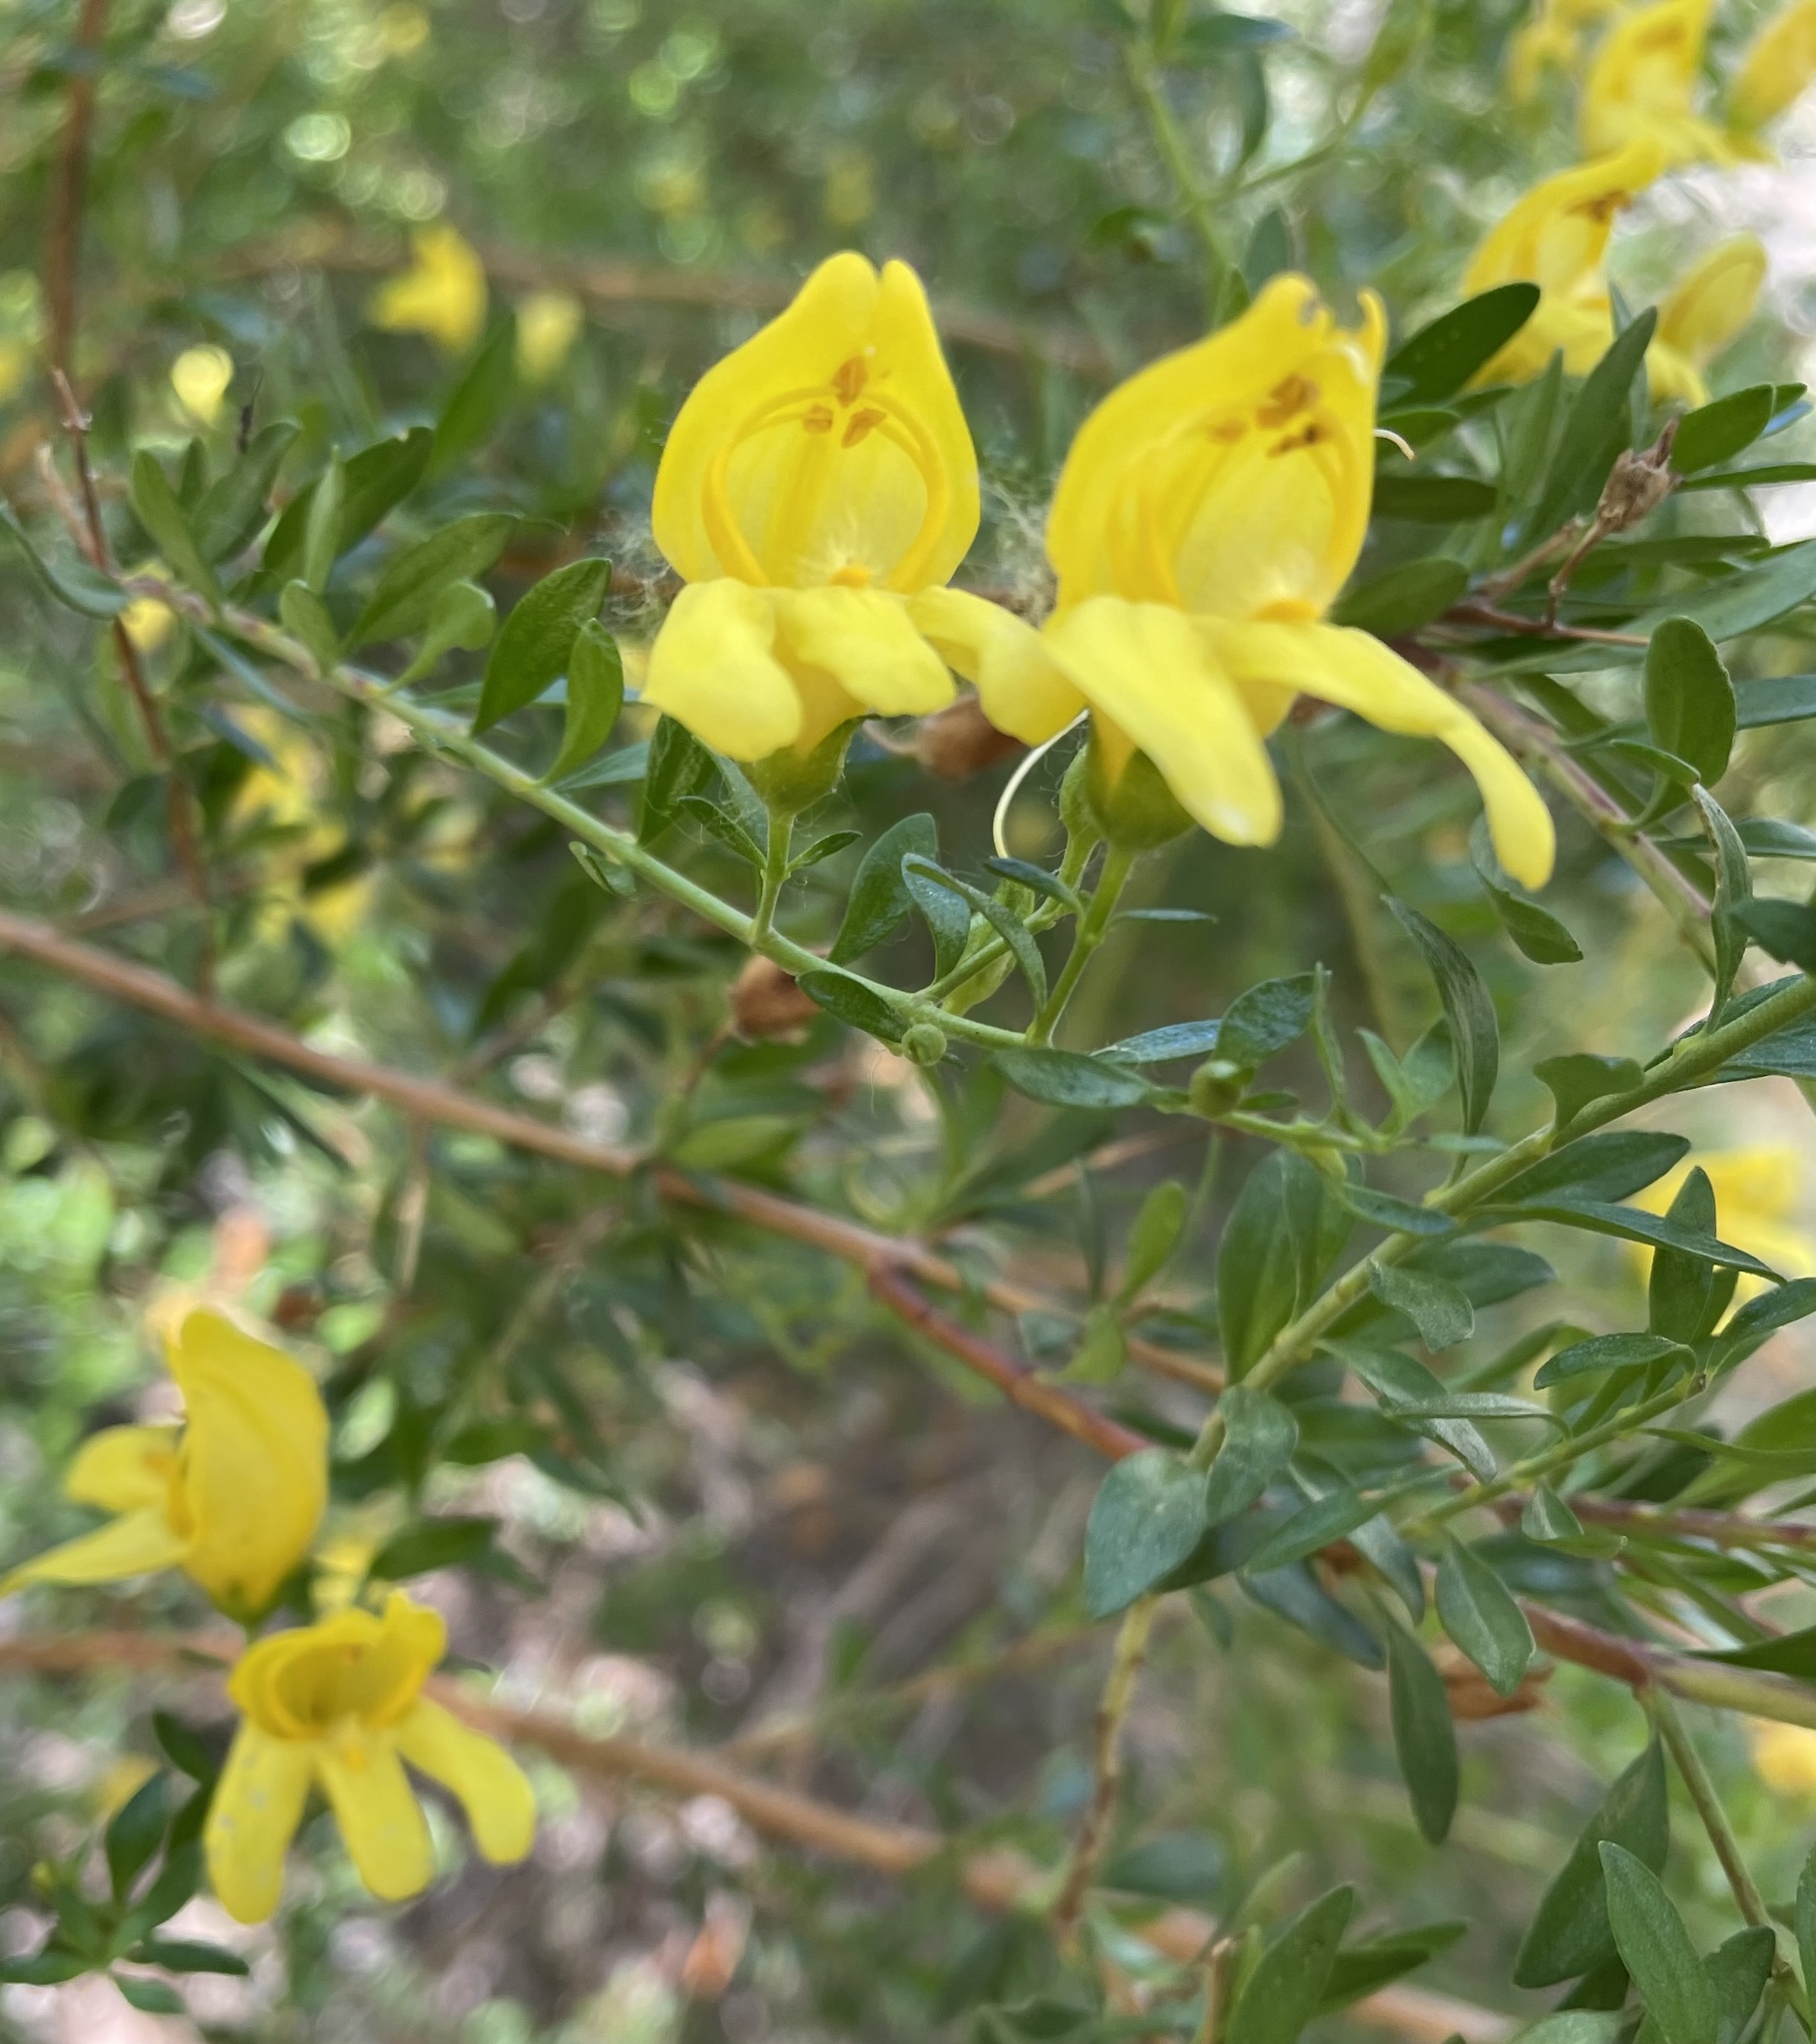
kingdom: Plantae
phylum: Tracheophyta
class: Magnoliopsida
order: Lamiales
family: Plantaginaceae
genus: Keckiella
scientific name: Keckiella antirrhinoides
